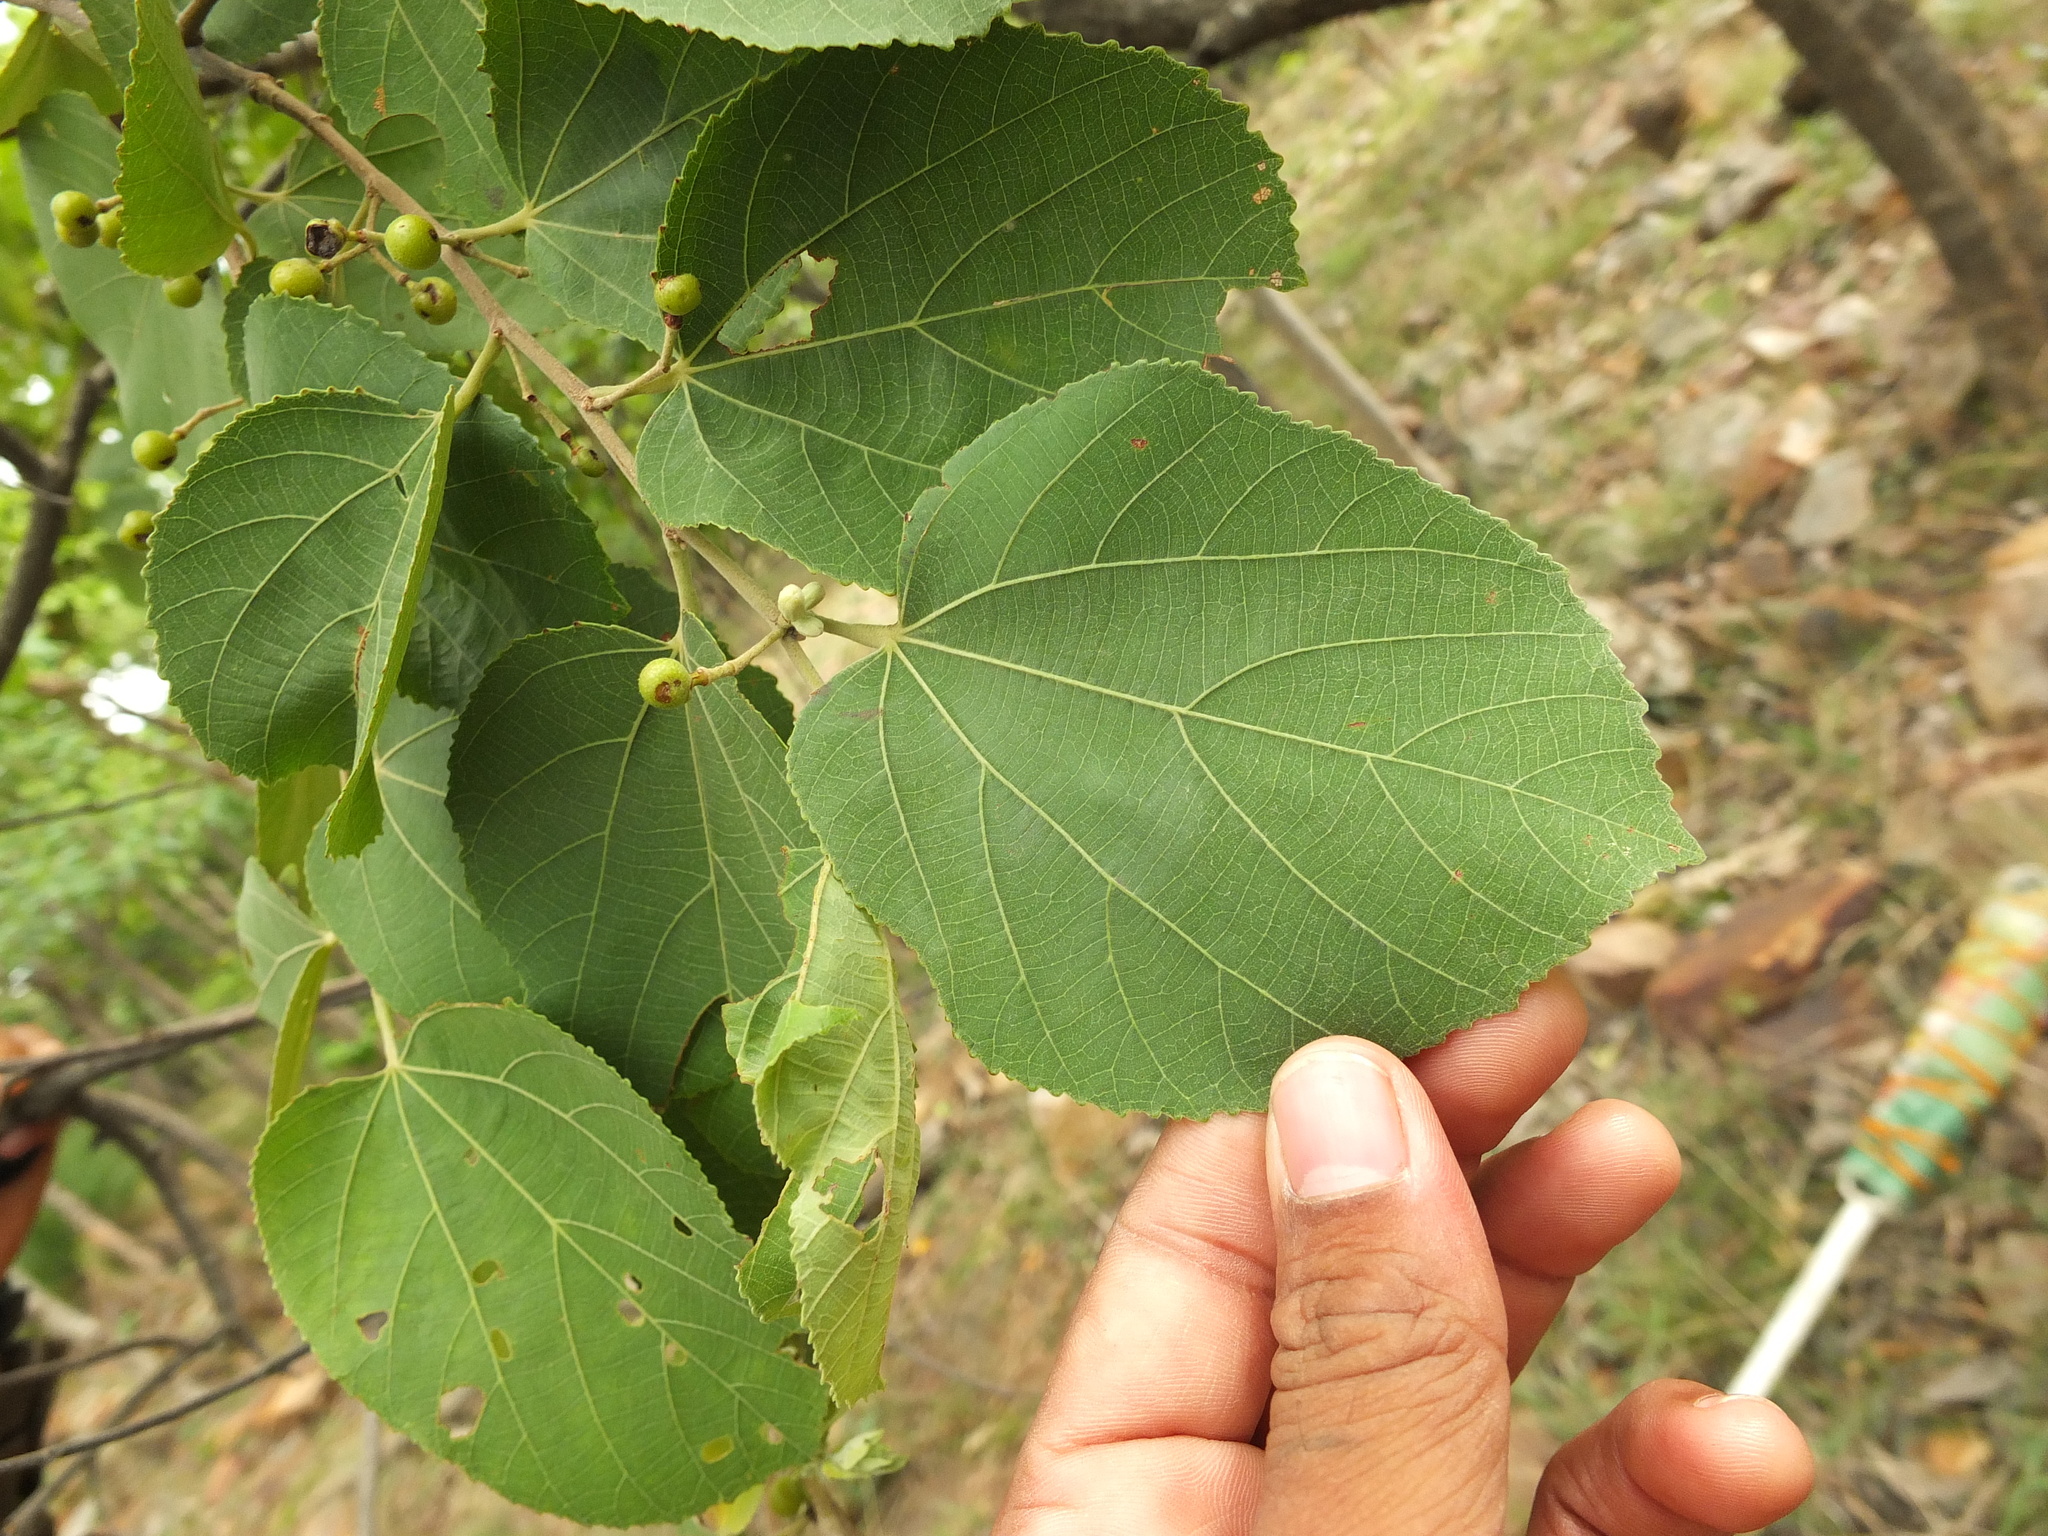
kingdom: Plantae
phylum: Tracheophyta
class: Magnoliopsida
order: Malvales
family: Malvaceae
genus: Grewia
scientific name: Grewia orbiculata
